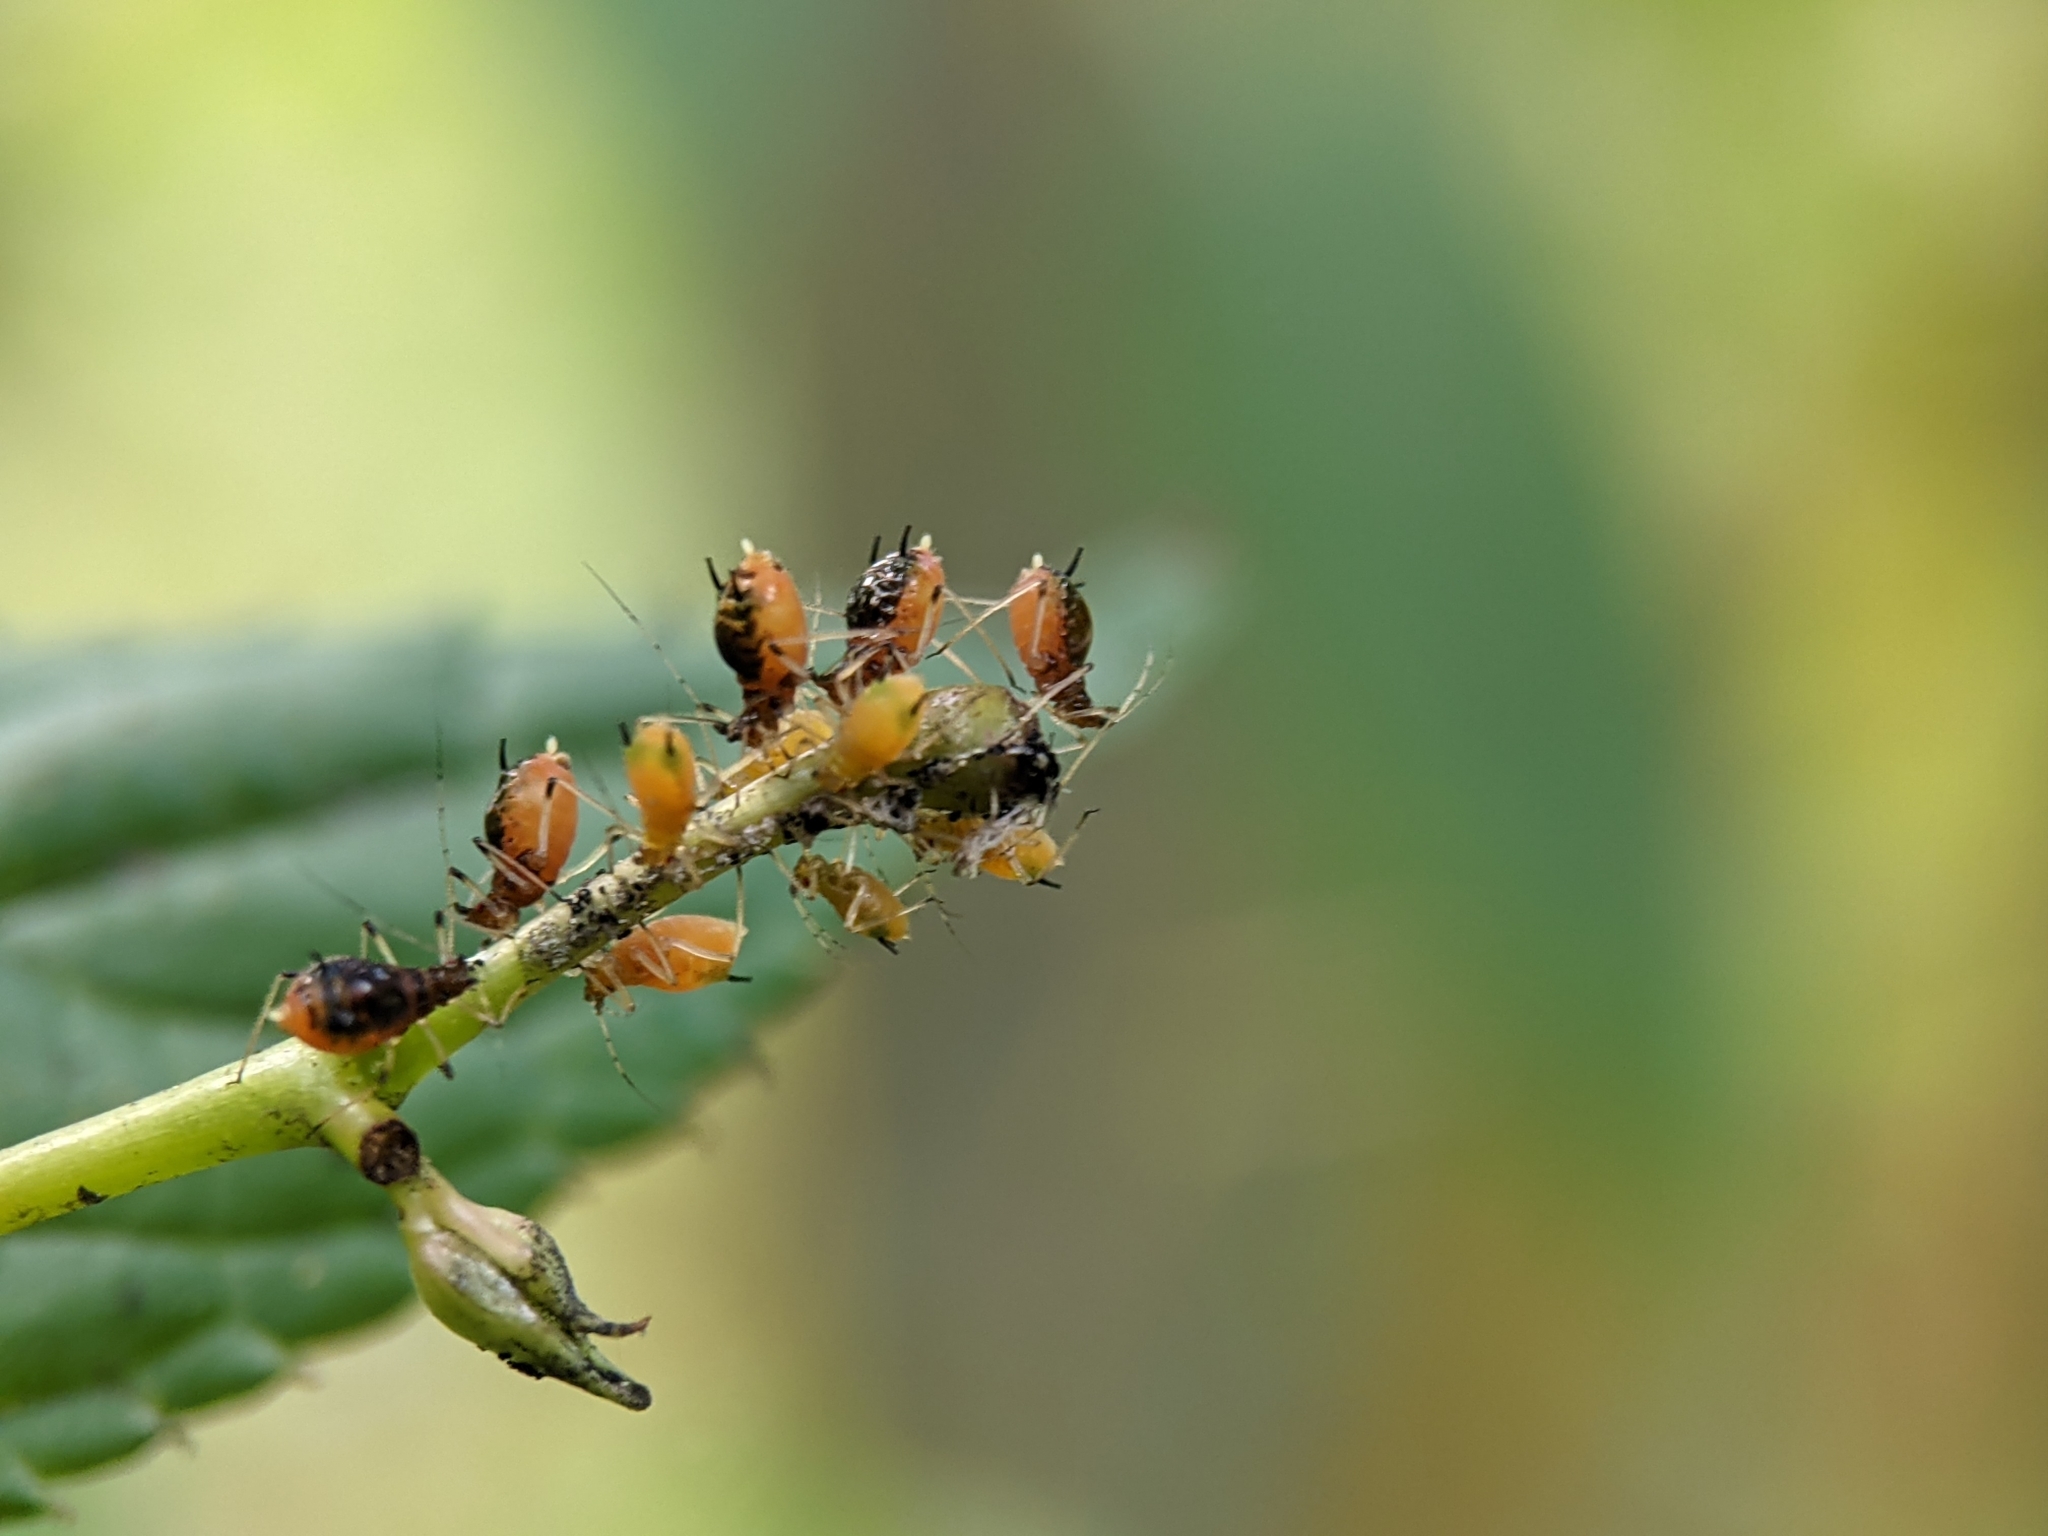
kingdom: Animalia
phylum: Arthropoda
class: Insecta
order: Hemiptera
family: Aphididae
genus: Impatientinum
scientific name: Impatientinum asiaticum
